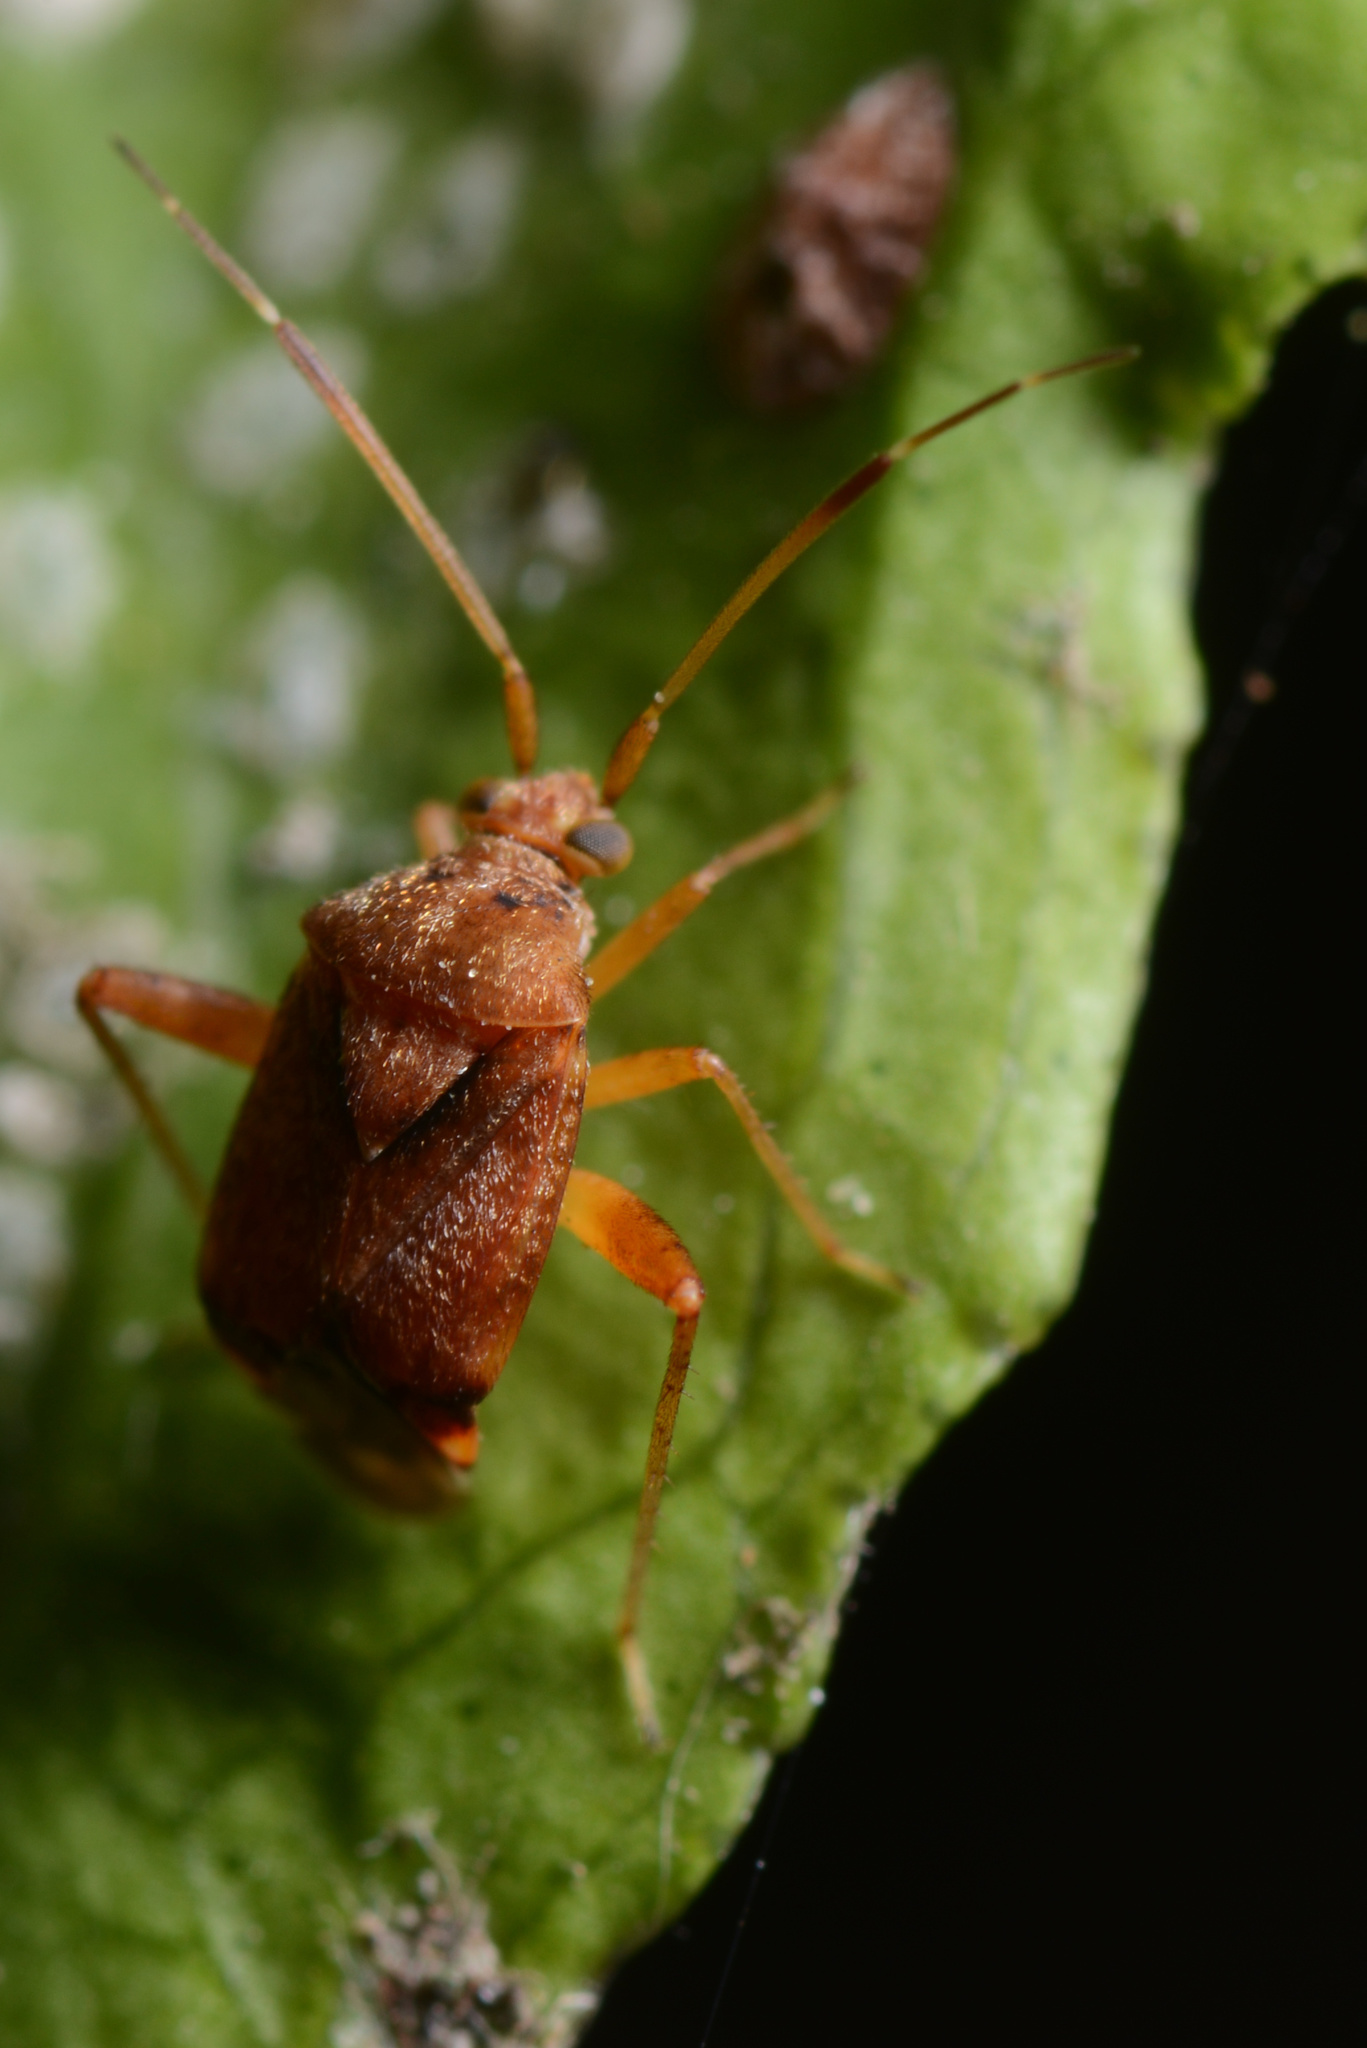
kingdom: Animalia
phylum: Arthropoda
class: Insecta
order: Hemiptera
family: Miridae
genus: Sidnia
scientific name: Sidnia kinbergi
